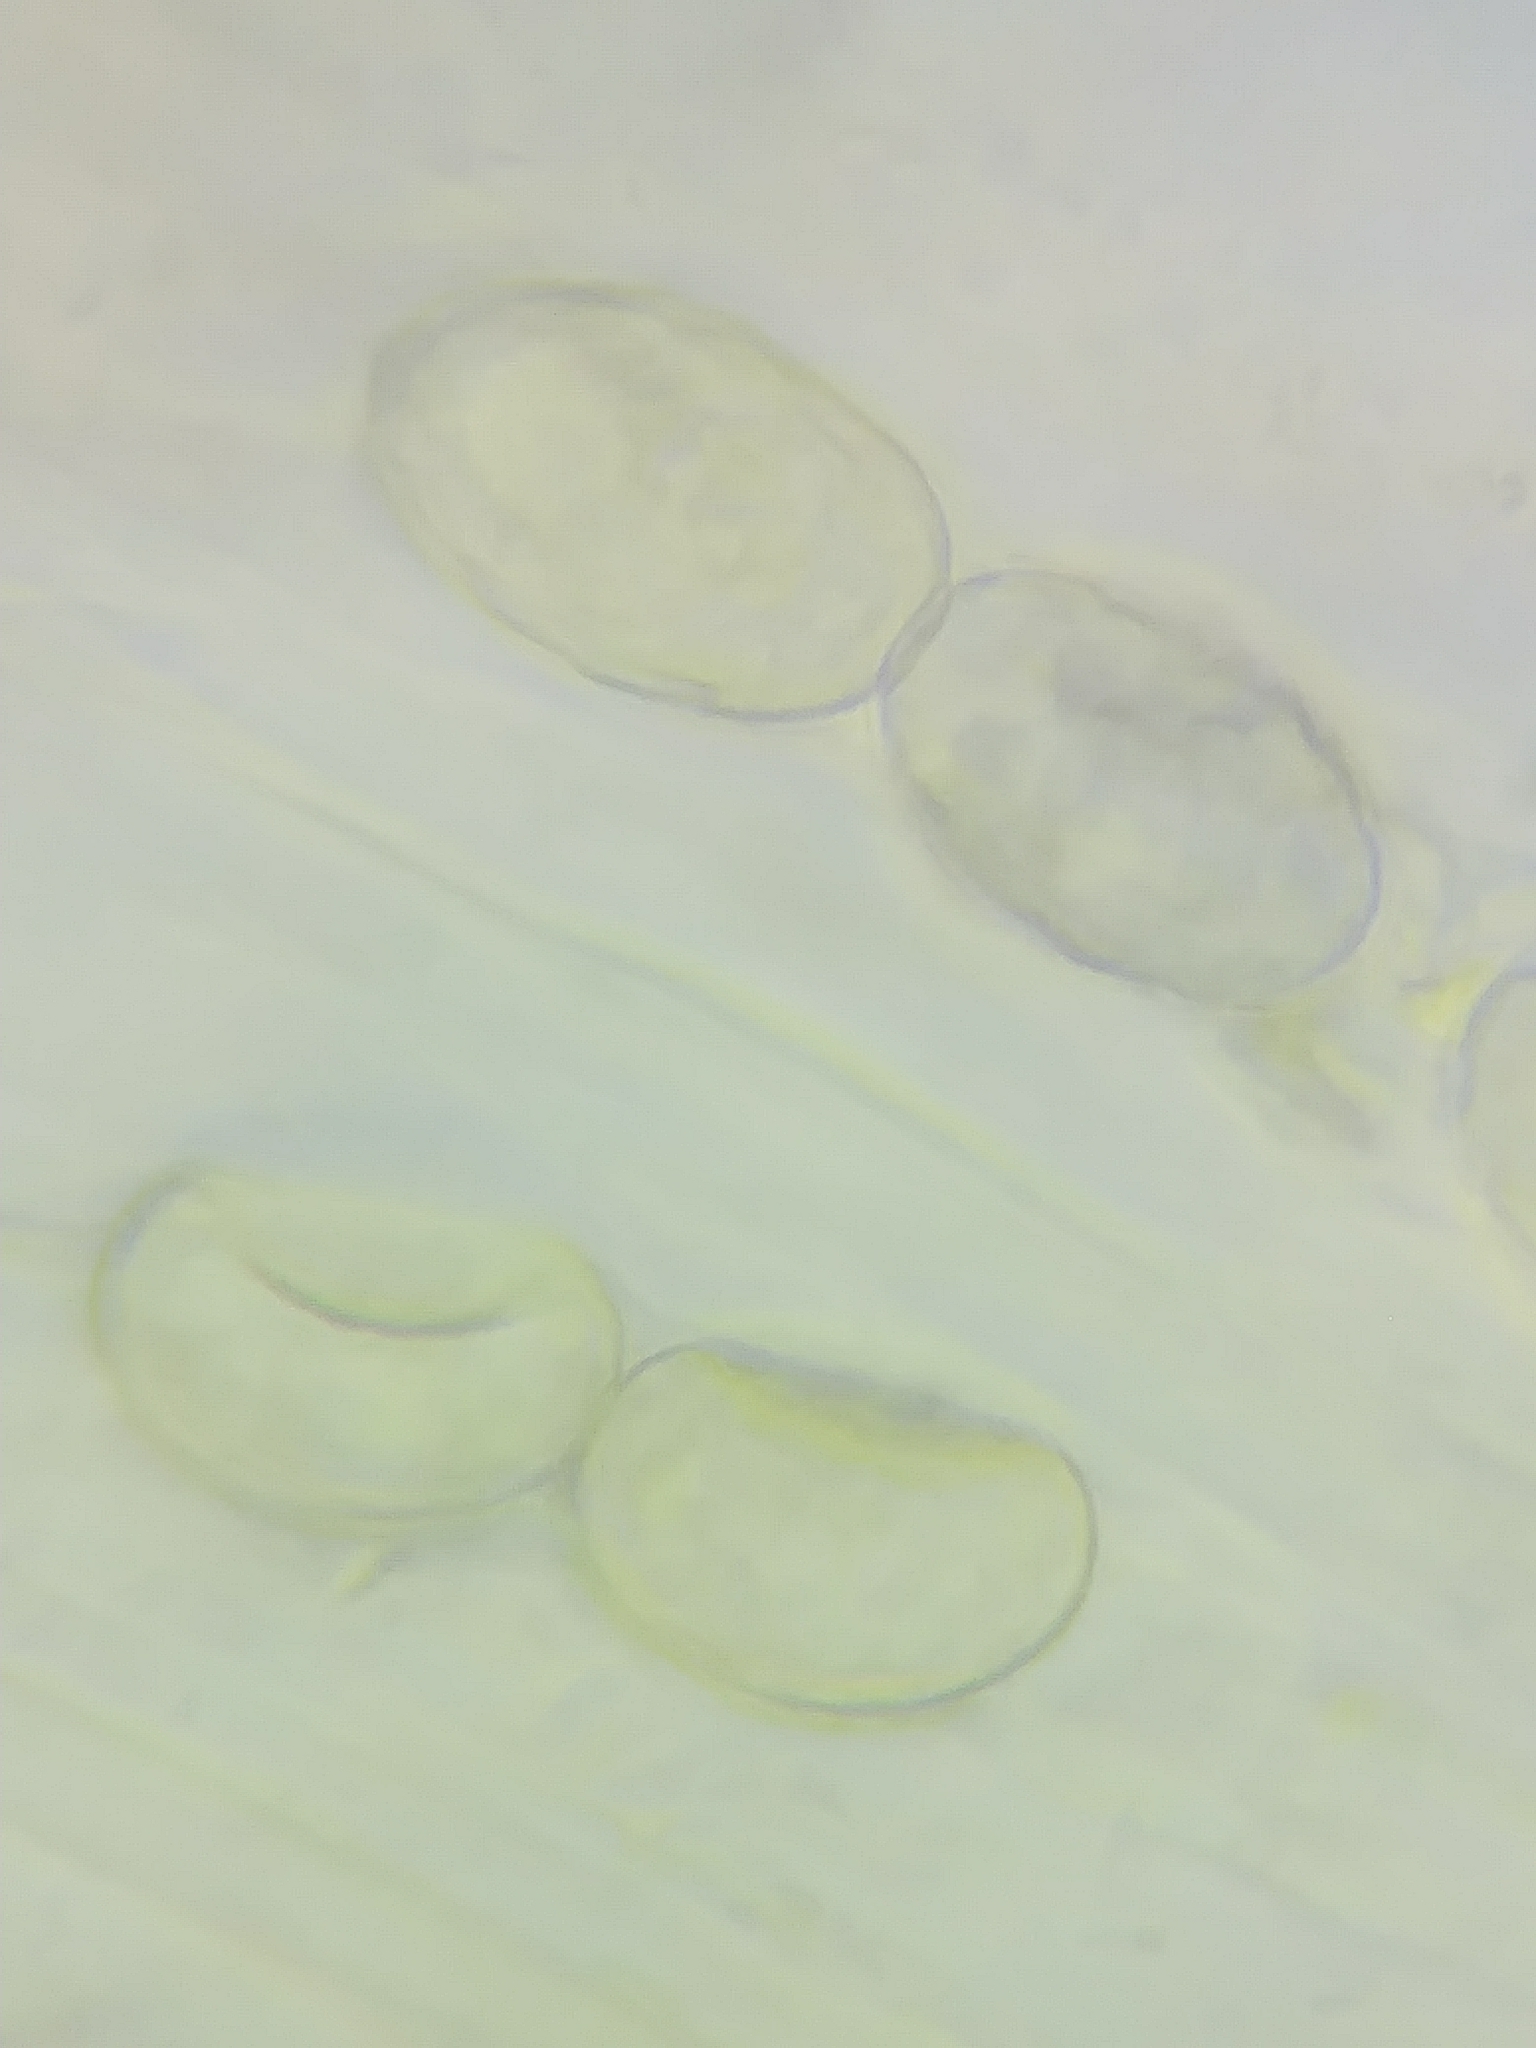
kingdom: Fungi
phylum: Ascomycota
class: Pezizomycetes
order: Pezizales
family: Pyronemataceae
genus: Scutellinia
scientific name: Scutellinia pennsylvanica
